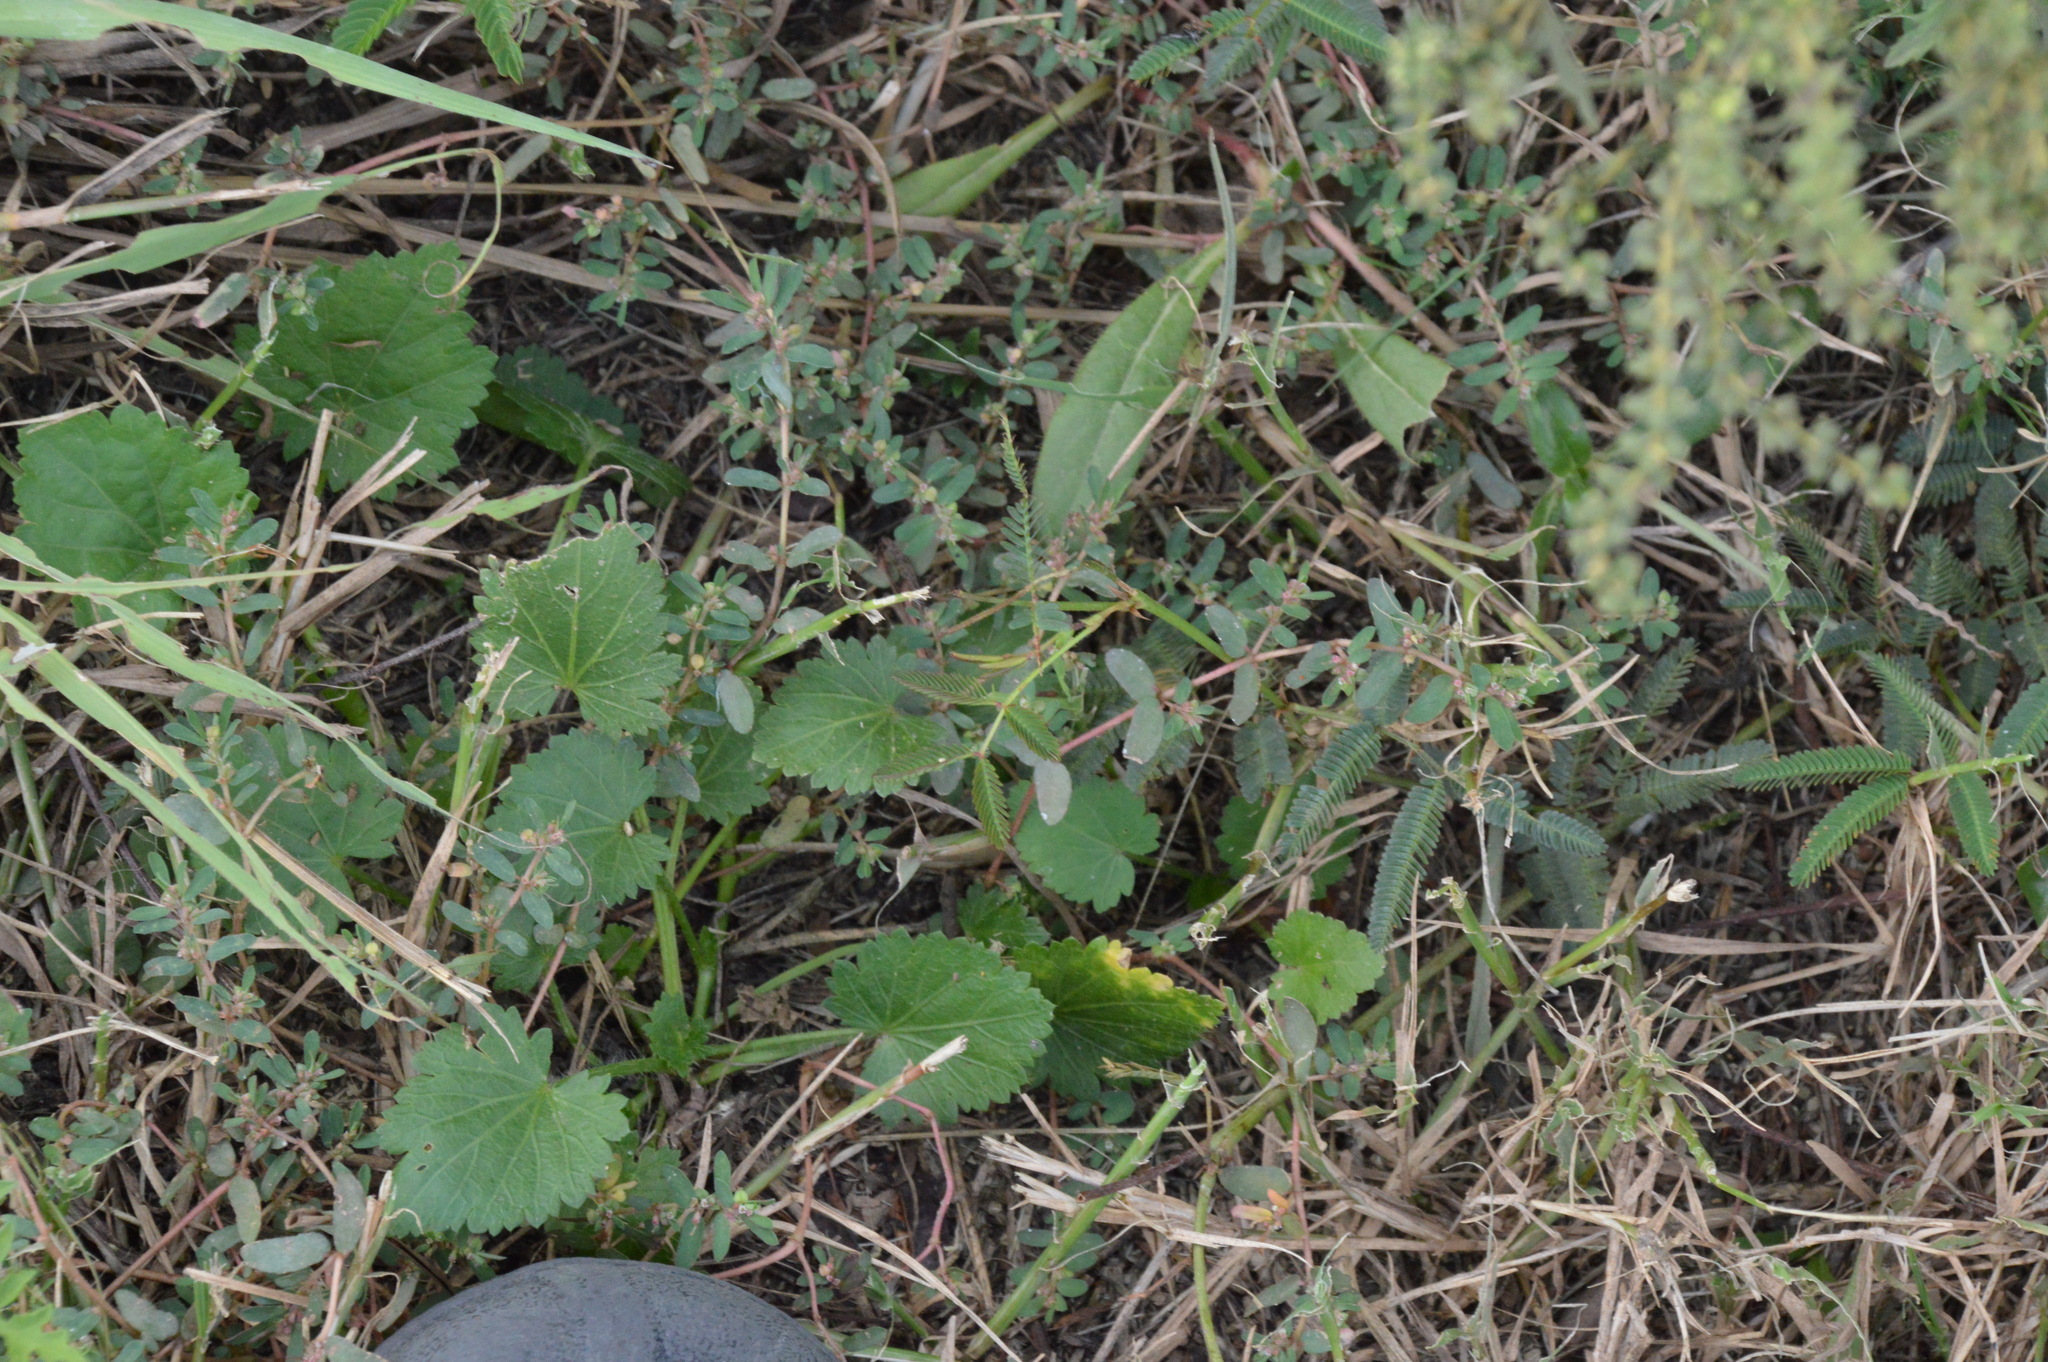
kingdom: Plantae
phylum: Tracheophyta
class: Magnoliopsida
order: Malvales
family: Malvaceae
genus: Modiola
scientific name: Modiola caroliniana
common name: Carolina bristlemallow
